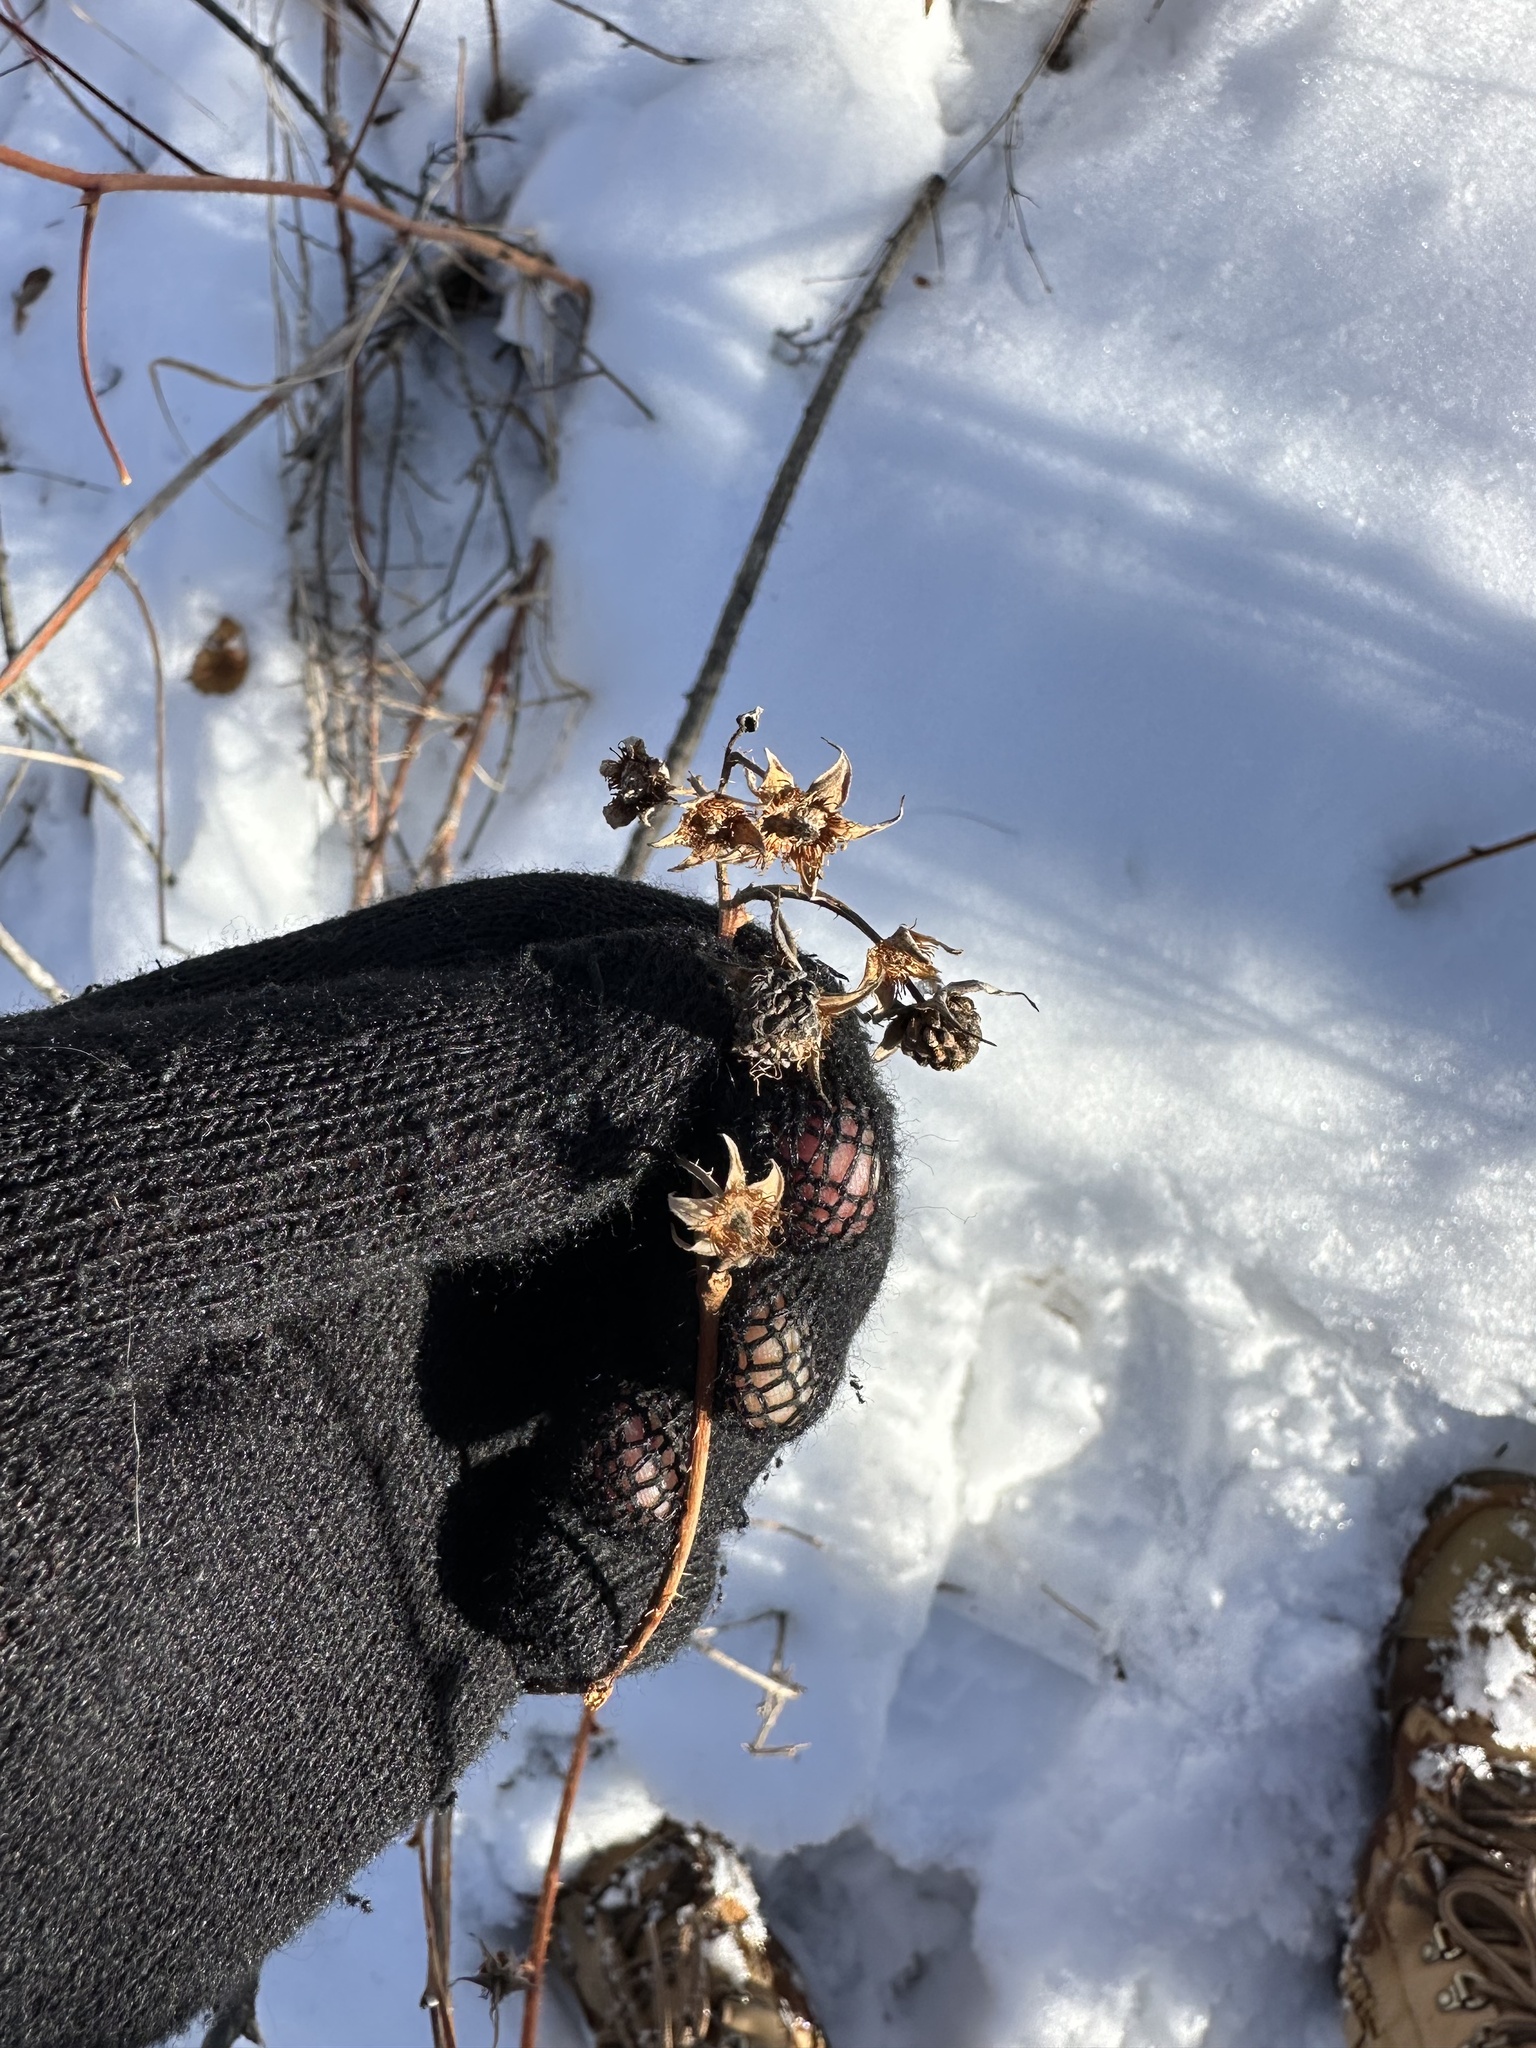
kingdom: Plantae
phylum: Tracheophyta
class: Magnoliopsida
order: Rosales
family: Rosaceae
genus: Rubus
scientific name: Rubus idaeus
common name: Raspberry
